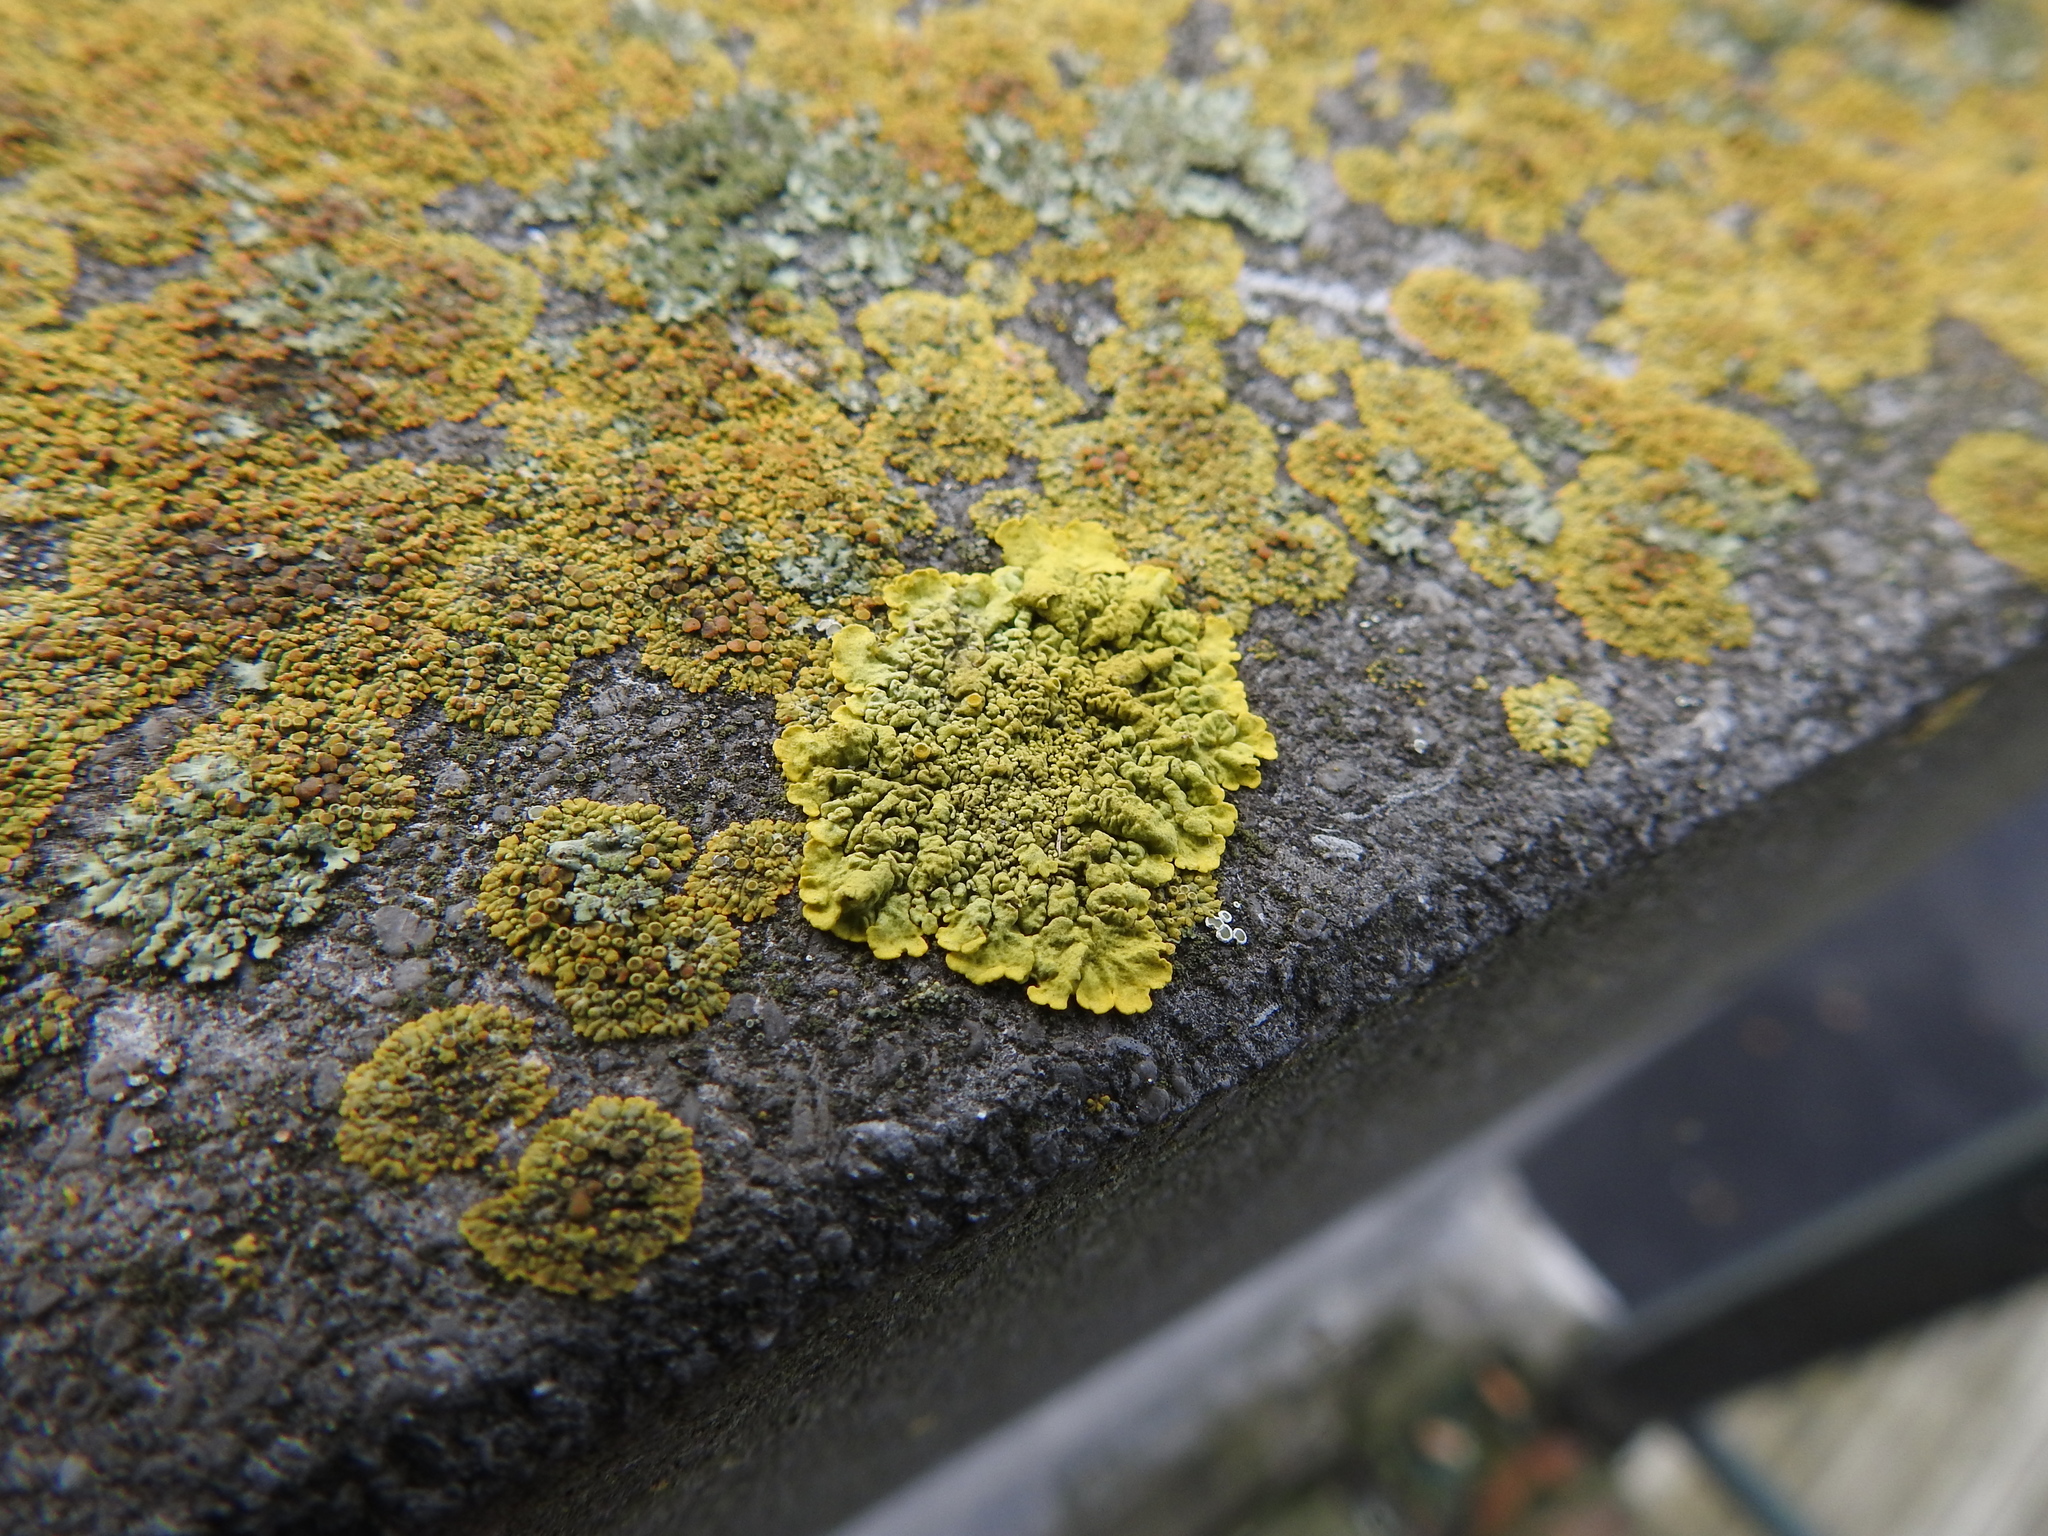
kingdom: Fungi
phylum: Ascomycota
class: Lecanoromycetes
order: Teloschistales
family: Teloschistaceae
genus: Calogaya
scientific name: Calogaya saxicola
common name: Rock jewel lichen
